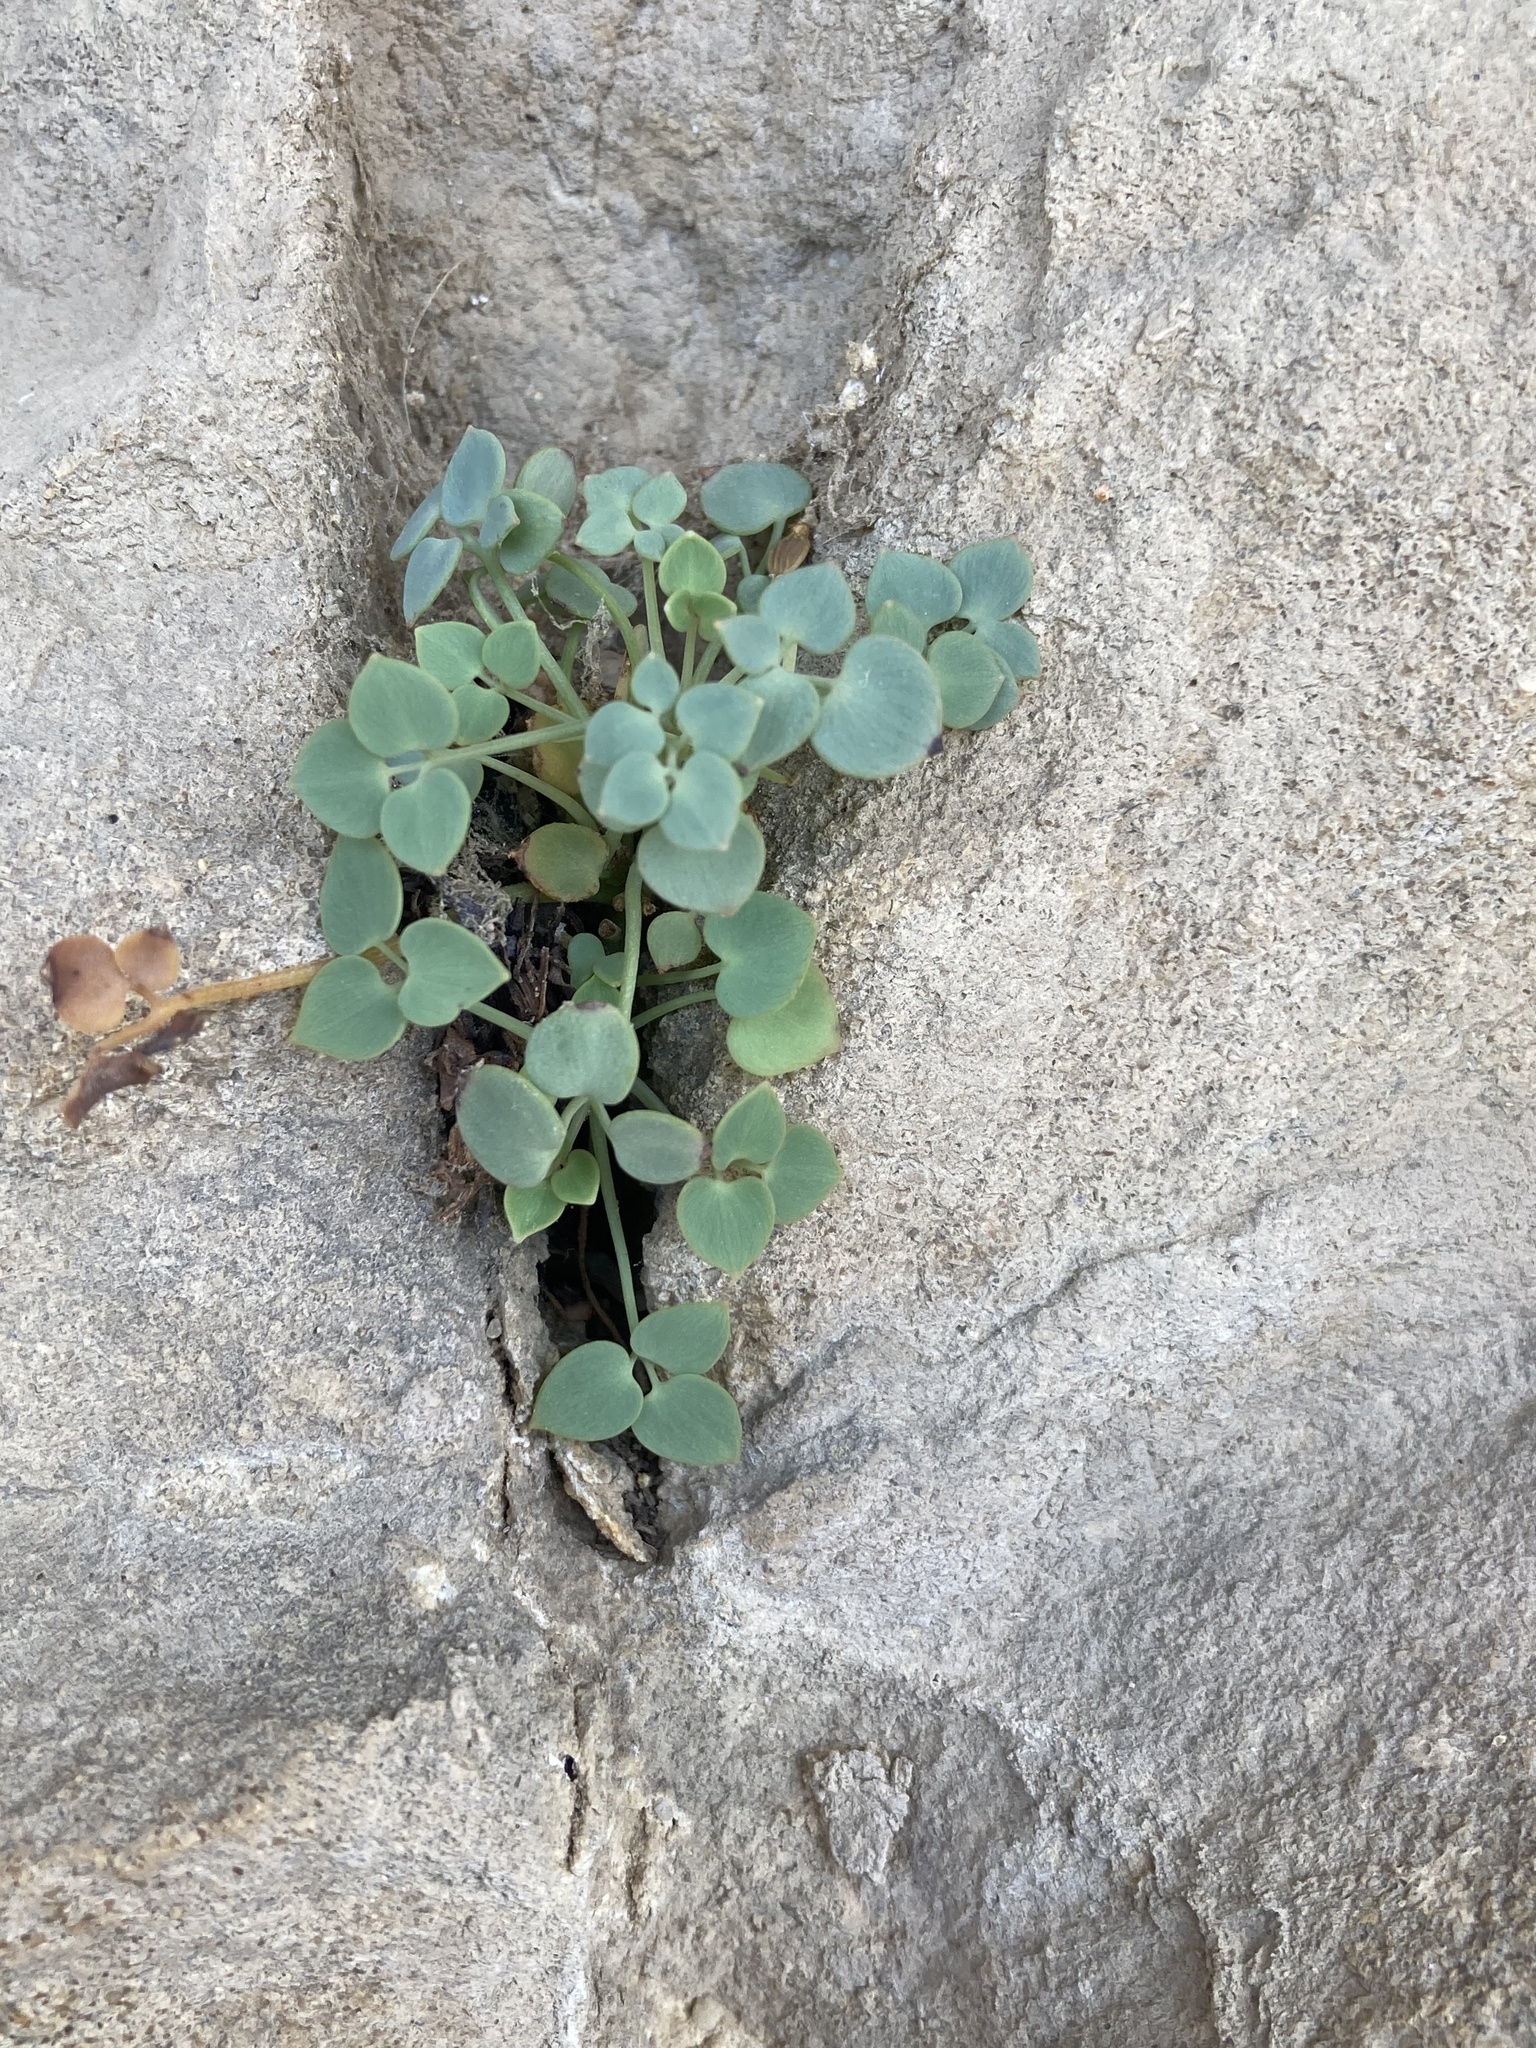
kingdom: Plantae
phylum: Tracheophyta
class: Magnoliopsida
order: Ranunculales
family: Papaveraceae
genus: Sarcocapnos
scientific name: Sarcocapnos enneaphylla
